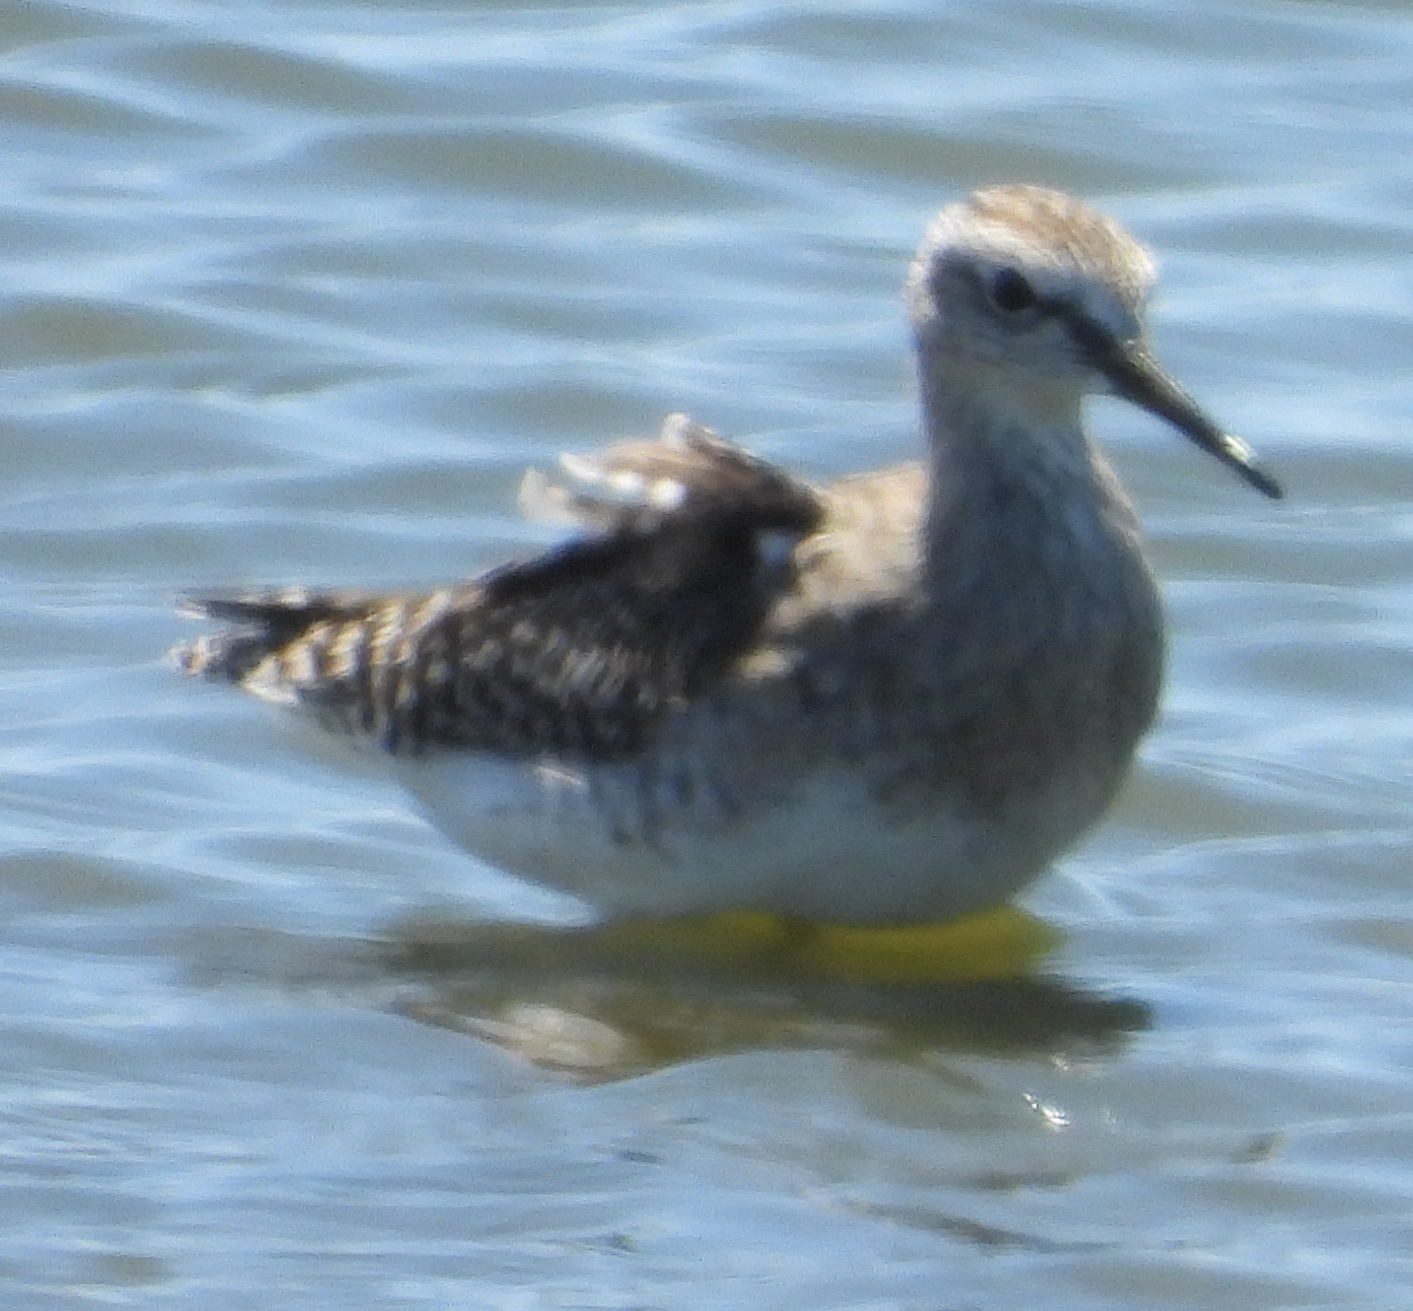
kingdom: Animalia
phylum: Chordata
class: Aves
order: Charadriiformes
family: Scolopacidae
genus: Tringa
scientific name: Tringa glareola
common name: Wood sandpiper
